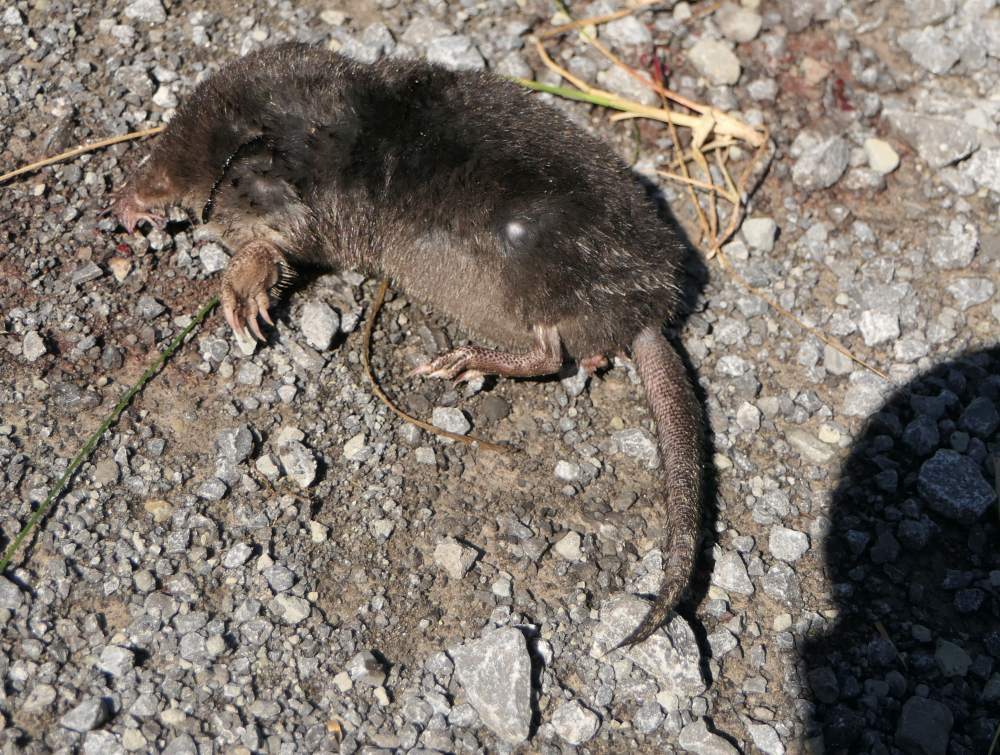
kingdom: Animalia
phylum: Chordata
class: Mammalia
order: Soricomorpha
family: Talpidae
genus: Condylura
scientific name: Condylura cristata
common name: Star-nosed mole
